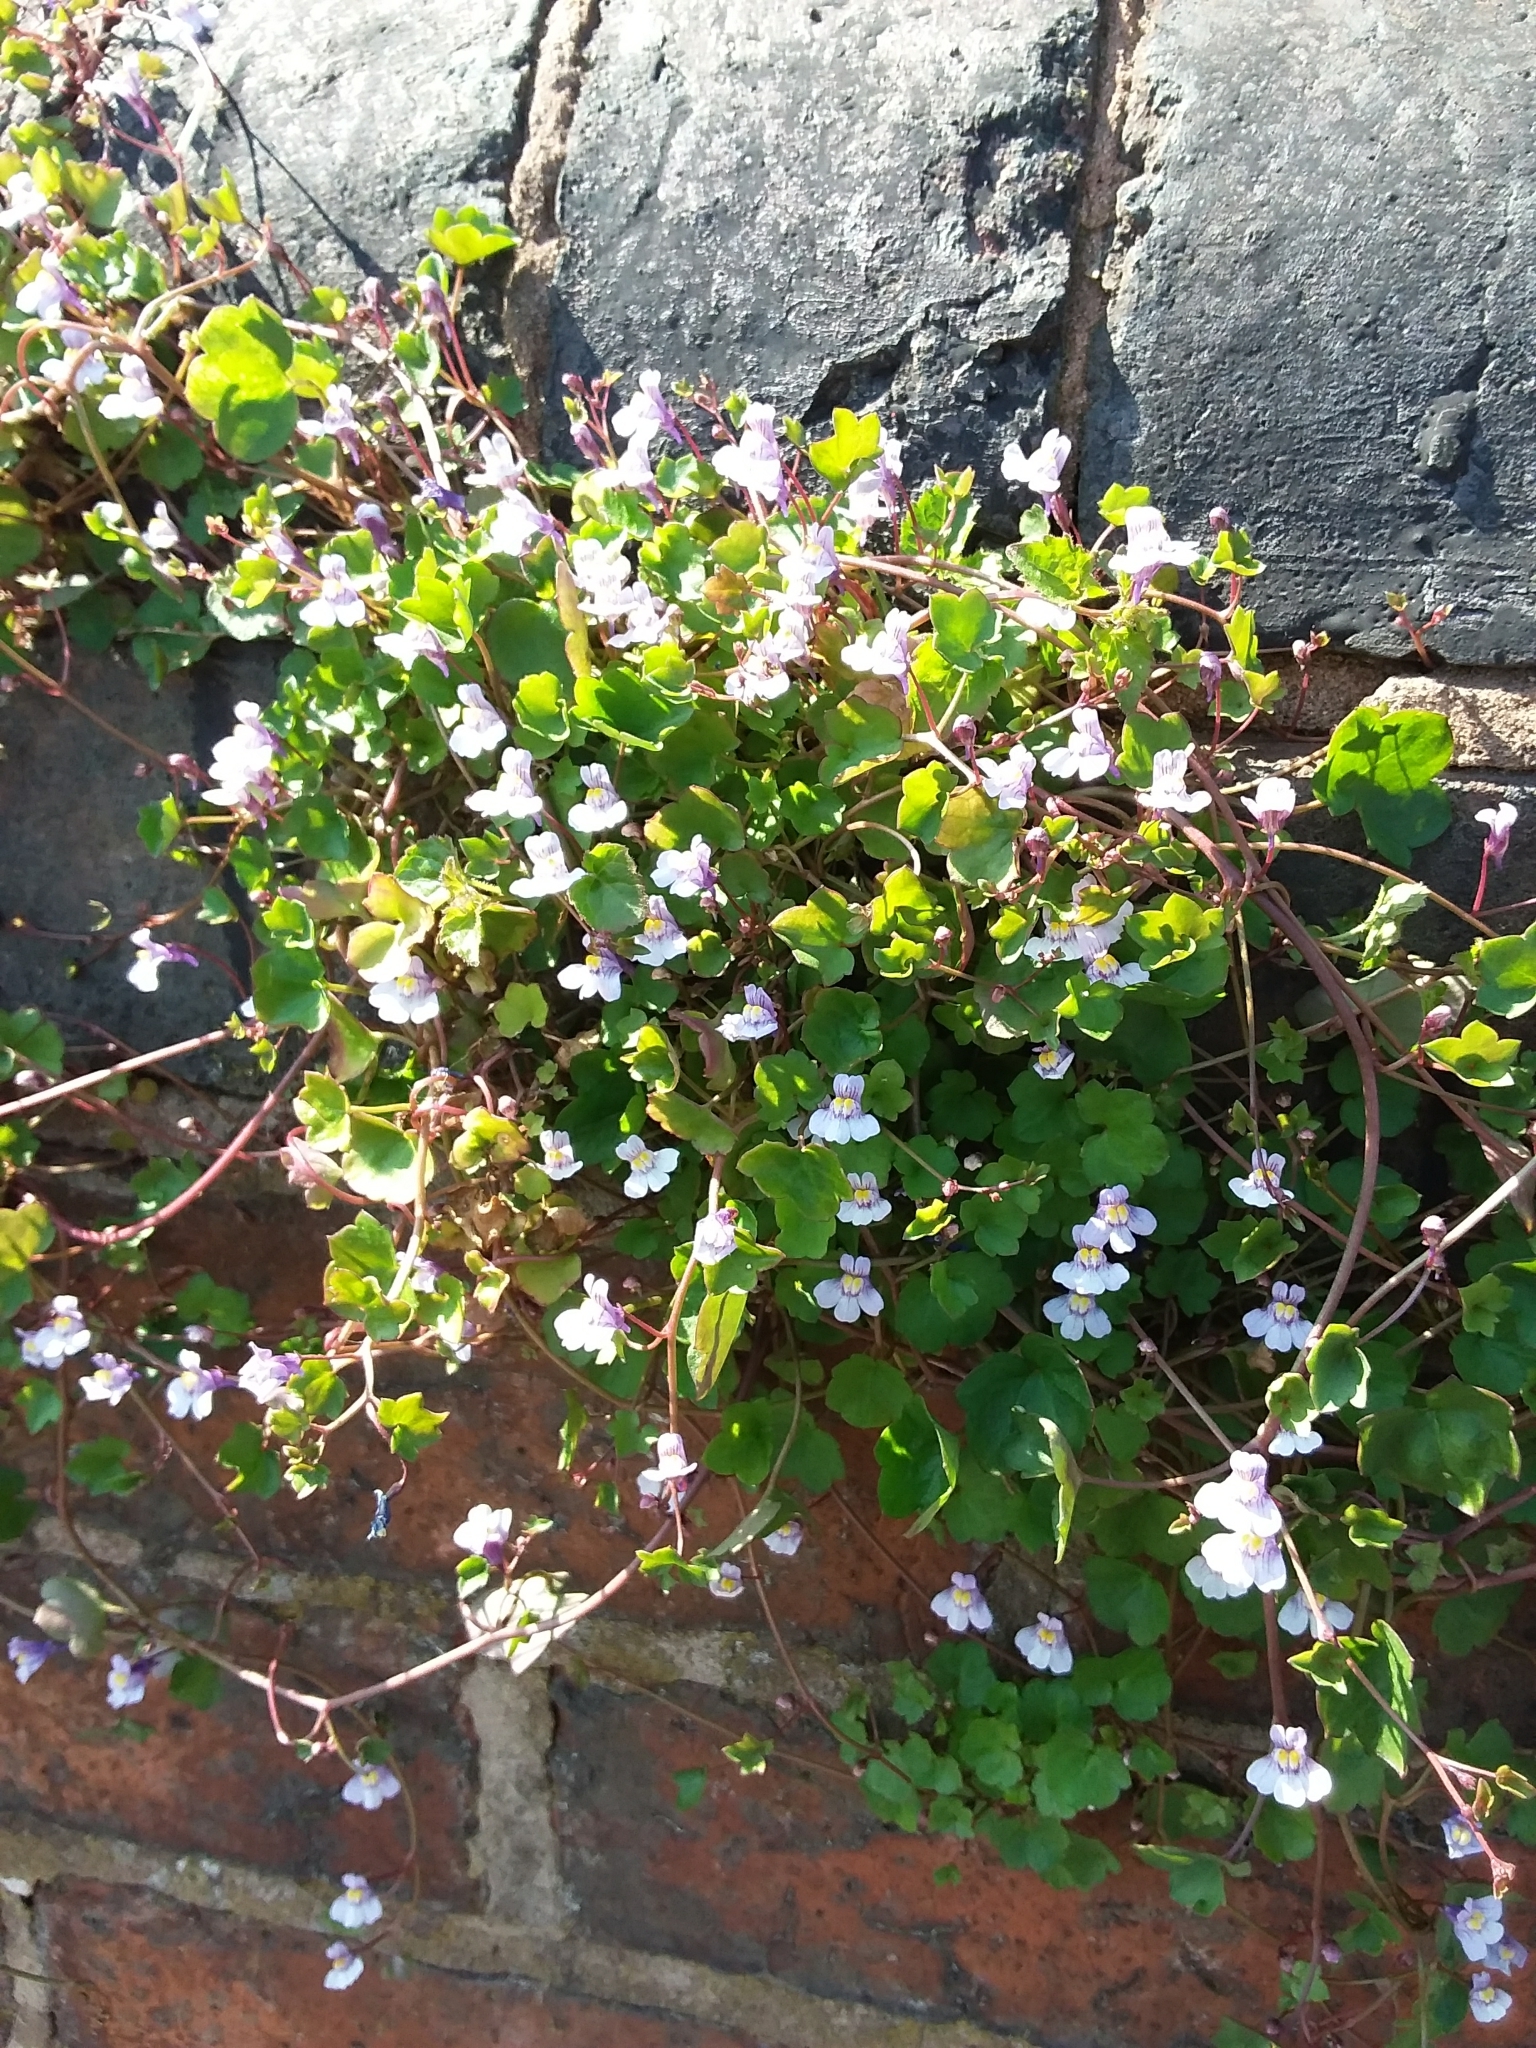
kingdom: Plantae
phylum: Tracheophyta
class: Magnoliopsida
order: Lamiales
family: Plantaginaceae
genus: Cymbalaria
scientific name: Cymbalaria muralis
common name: Ivy-leaved toadflax
